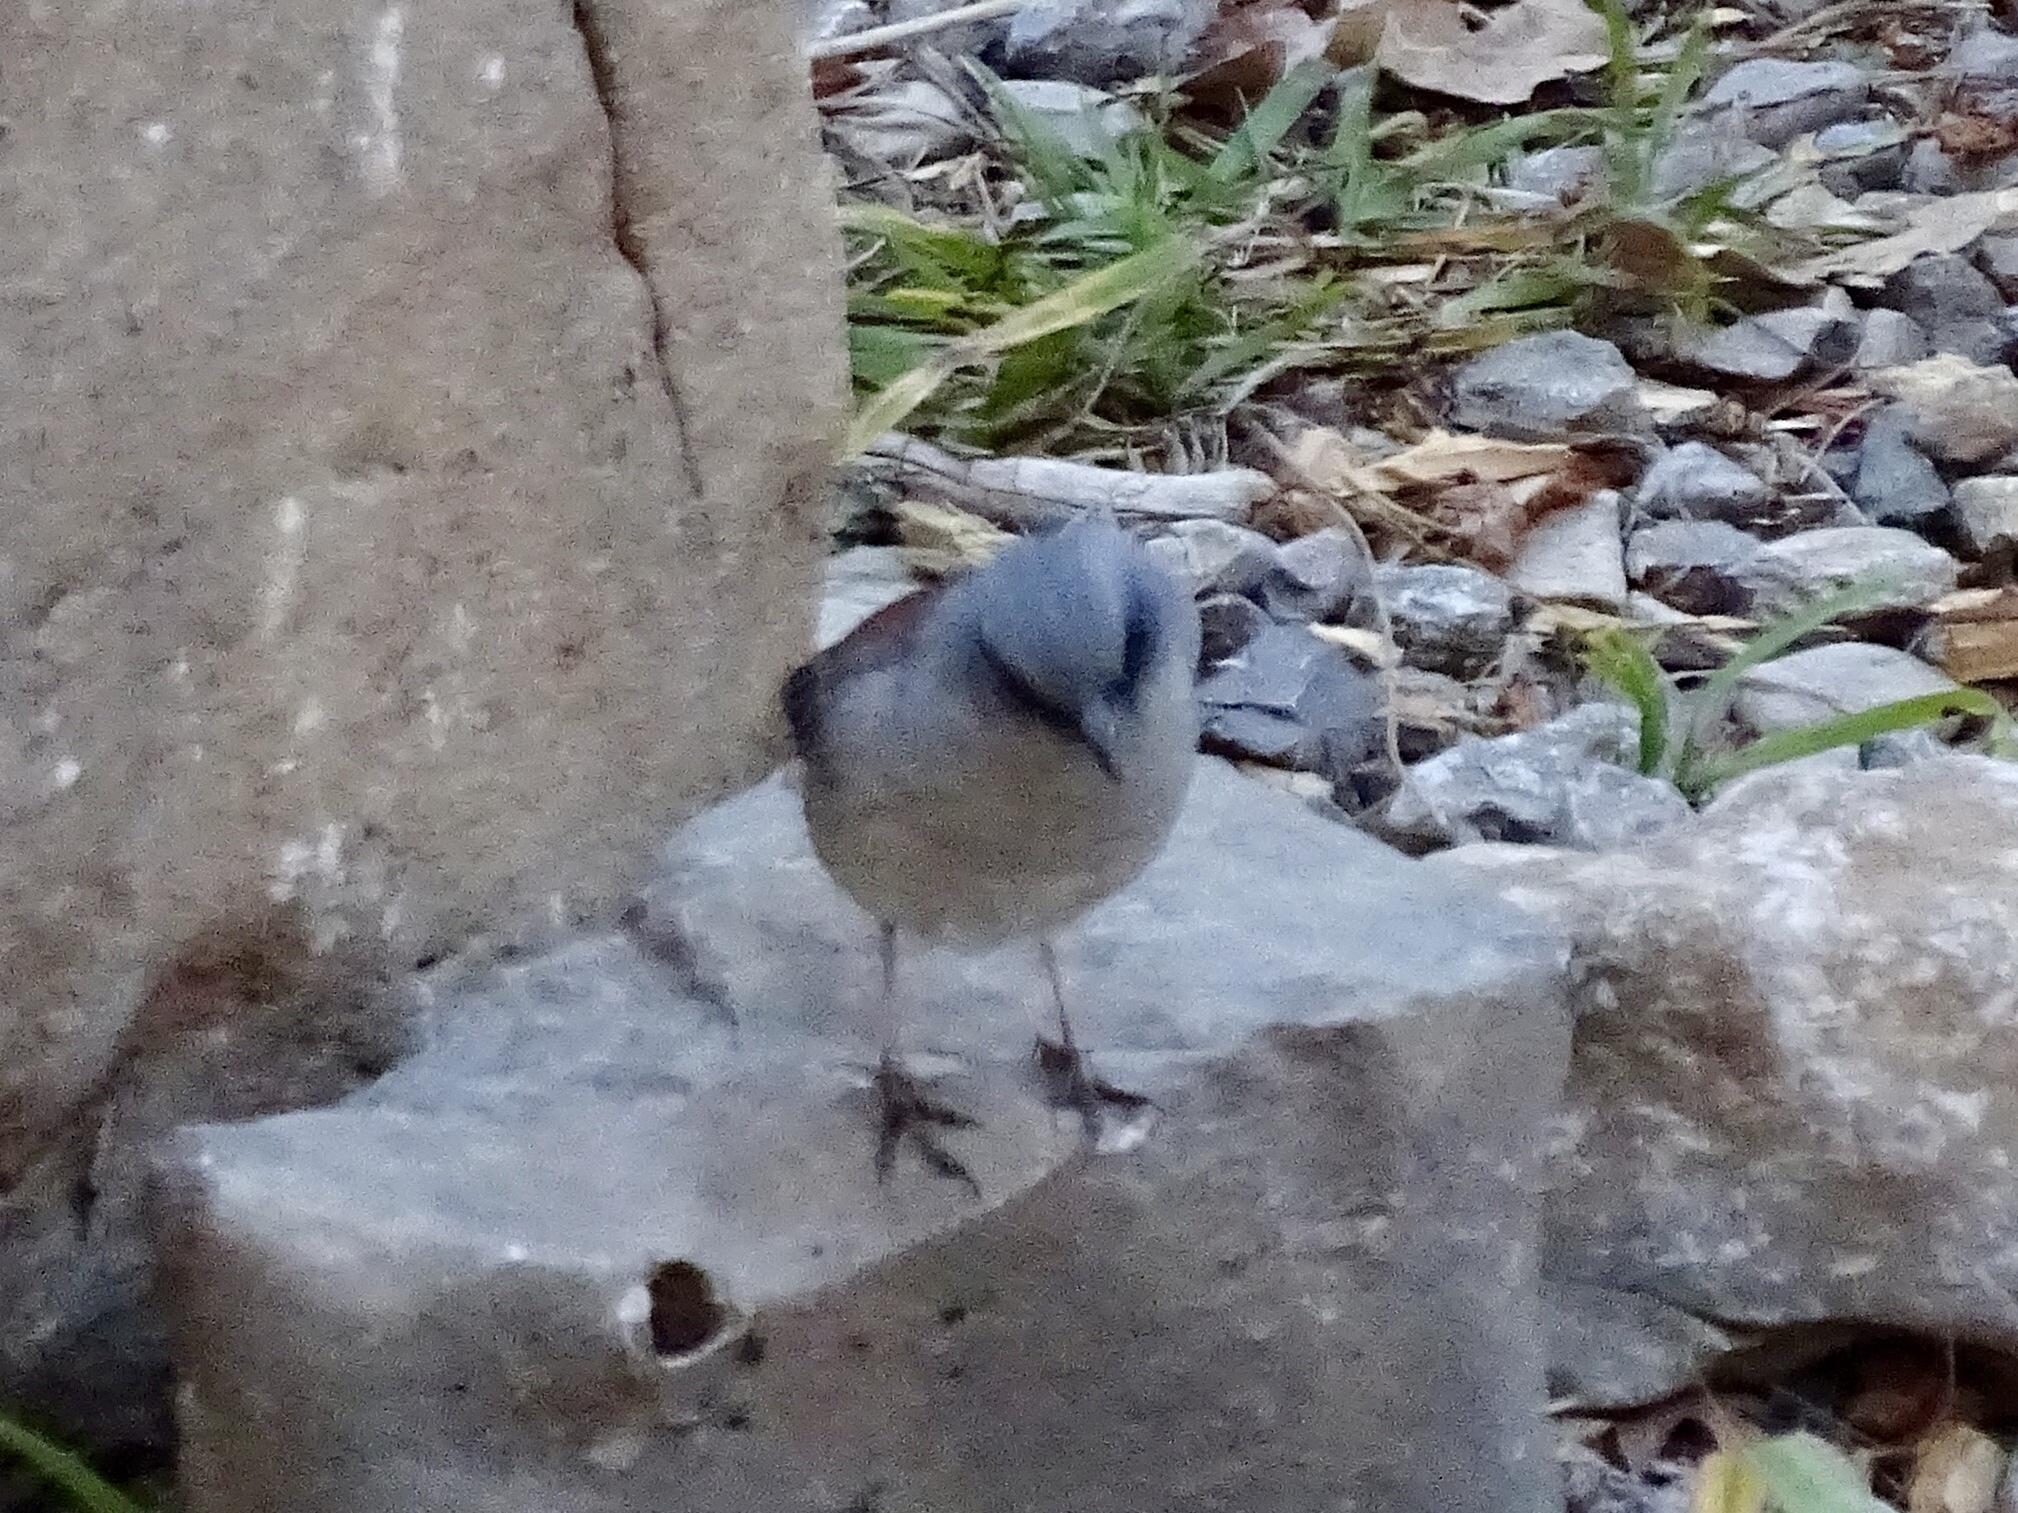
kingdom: Animalia
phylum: Chordata
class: Aves
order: Passeriformes
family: Passerellidae
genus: Junco
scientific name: Junco hyemalis
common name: Dark-eyed junco
